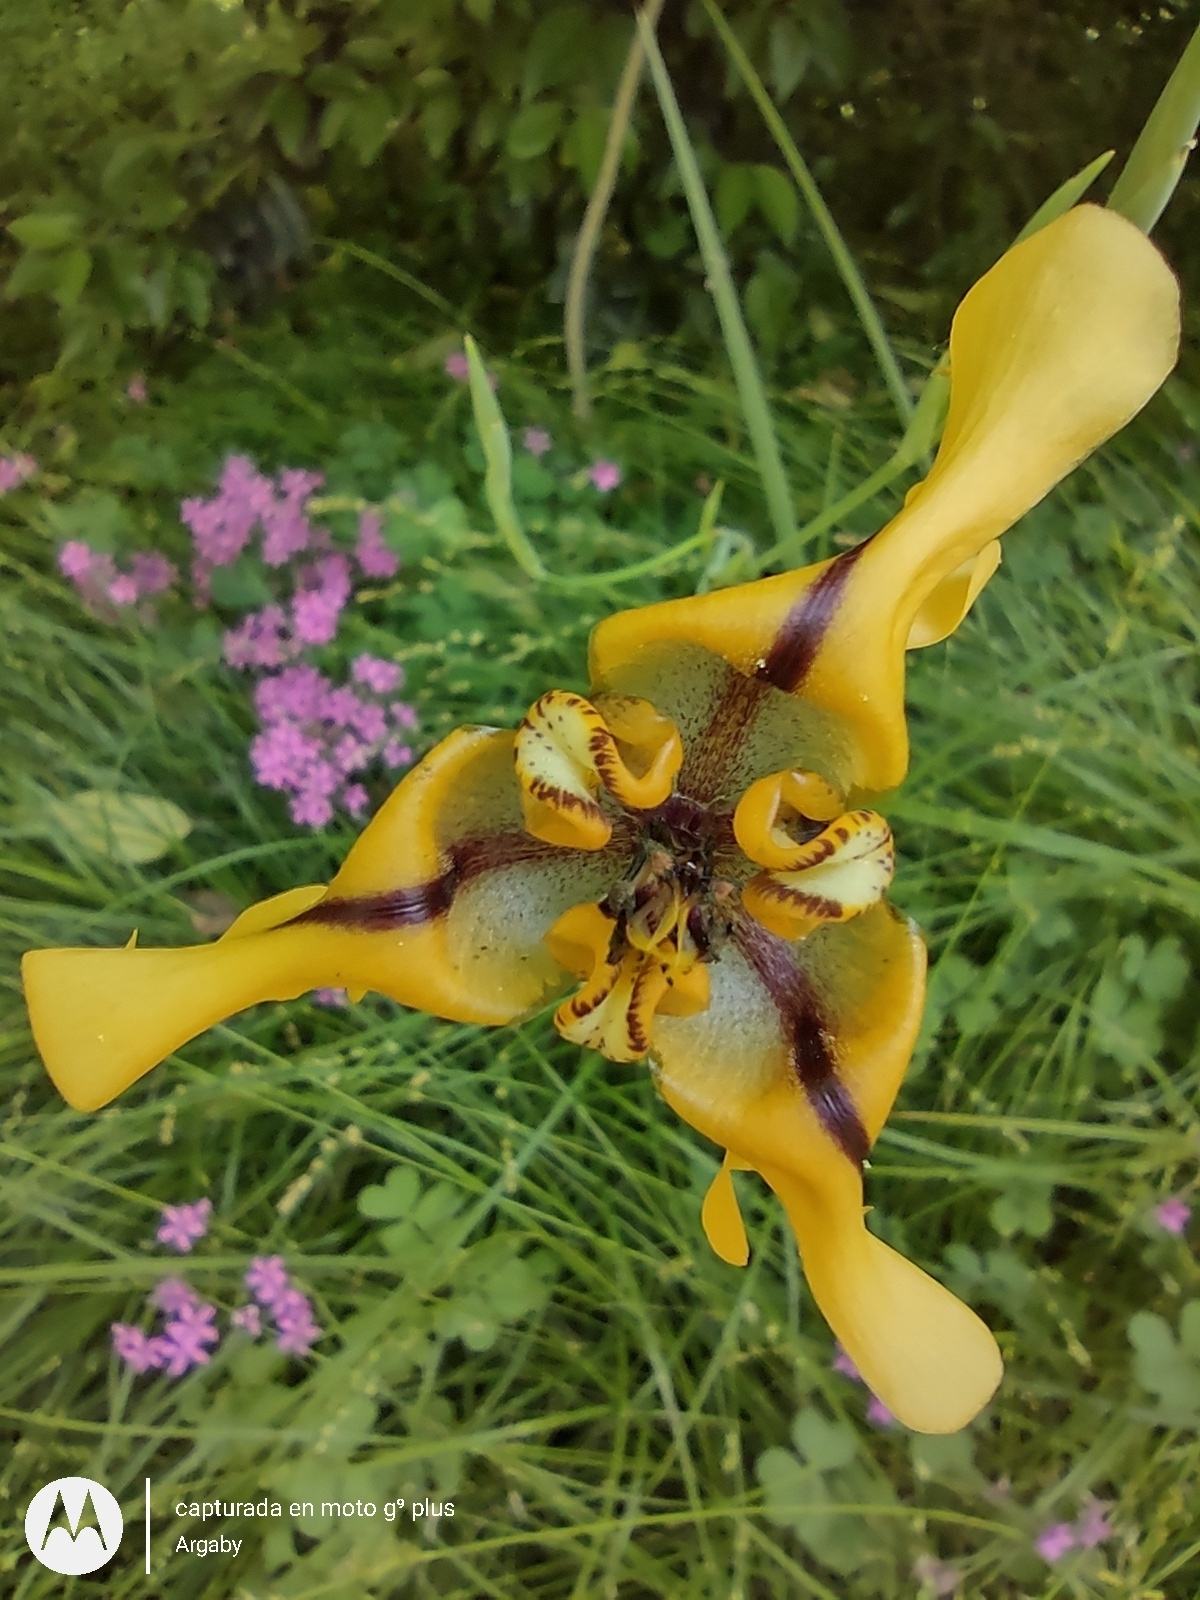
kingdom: Plantae
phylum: Tracheophyta
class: Liliopsida
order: Asparagales
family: Iridaceae
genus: Cypella
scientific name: Cypella herbertii
